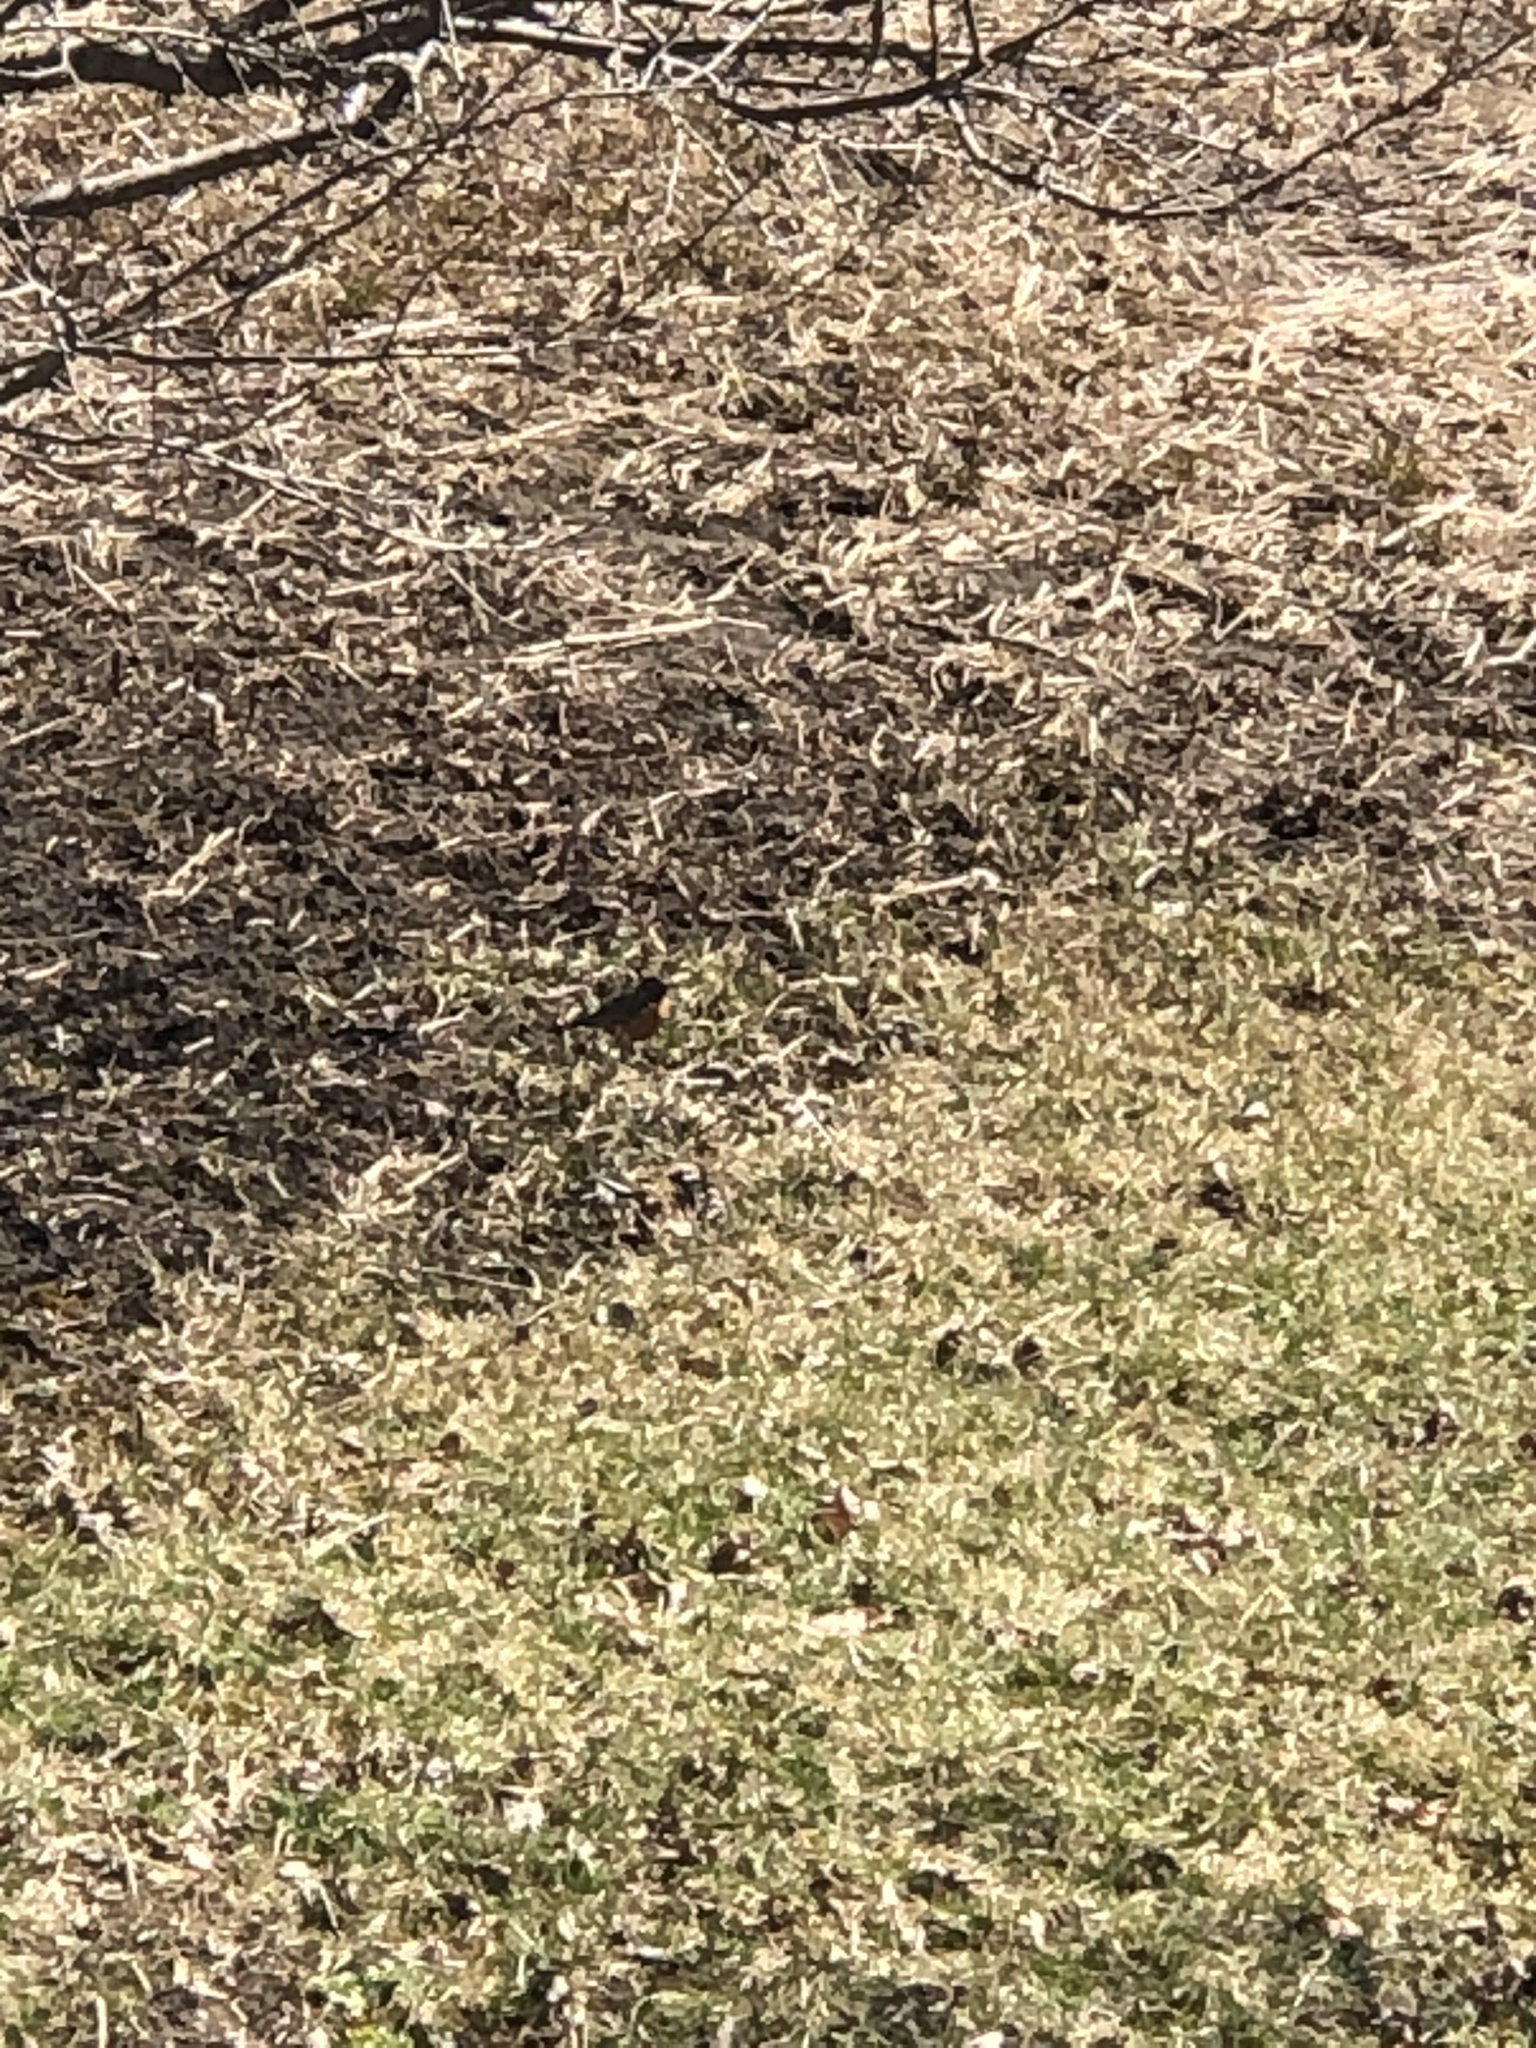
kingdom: Animalia
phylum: Chordata
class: Aves
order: Passeriformes
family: Turdidae
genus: Turdus
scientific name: Turdus migratorius
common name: American robin
